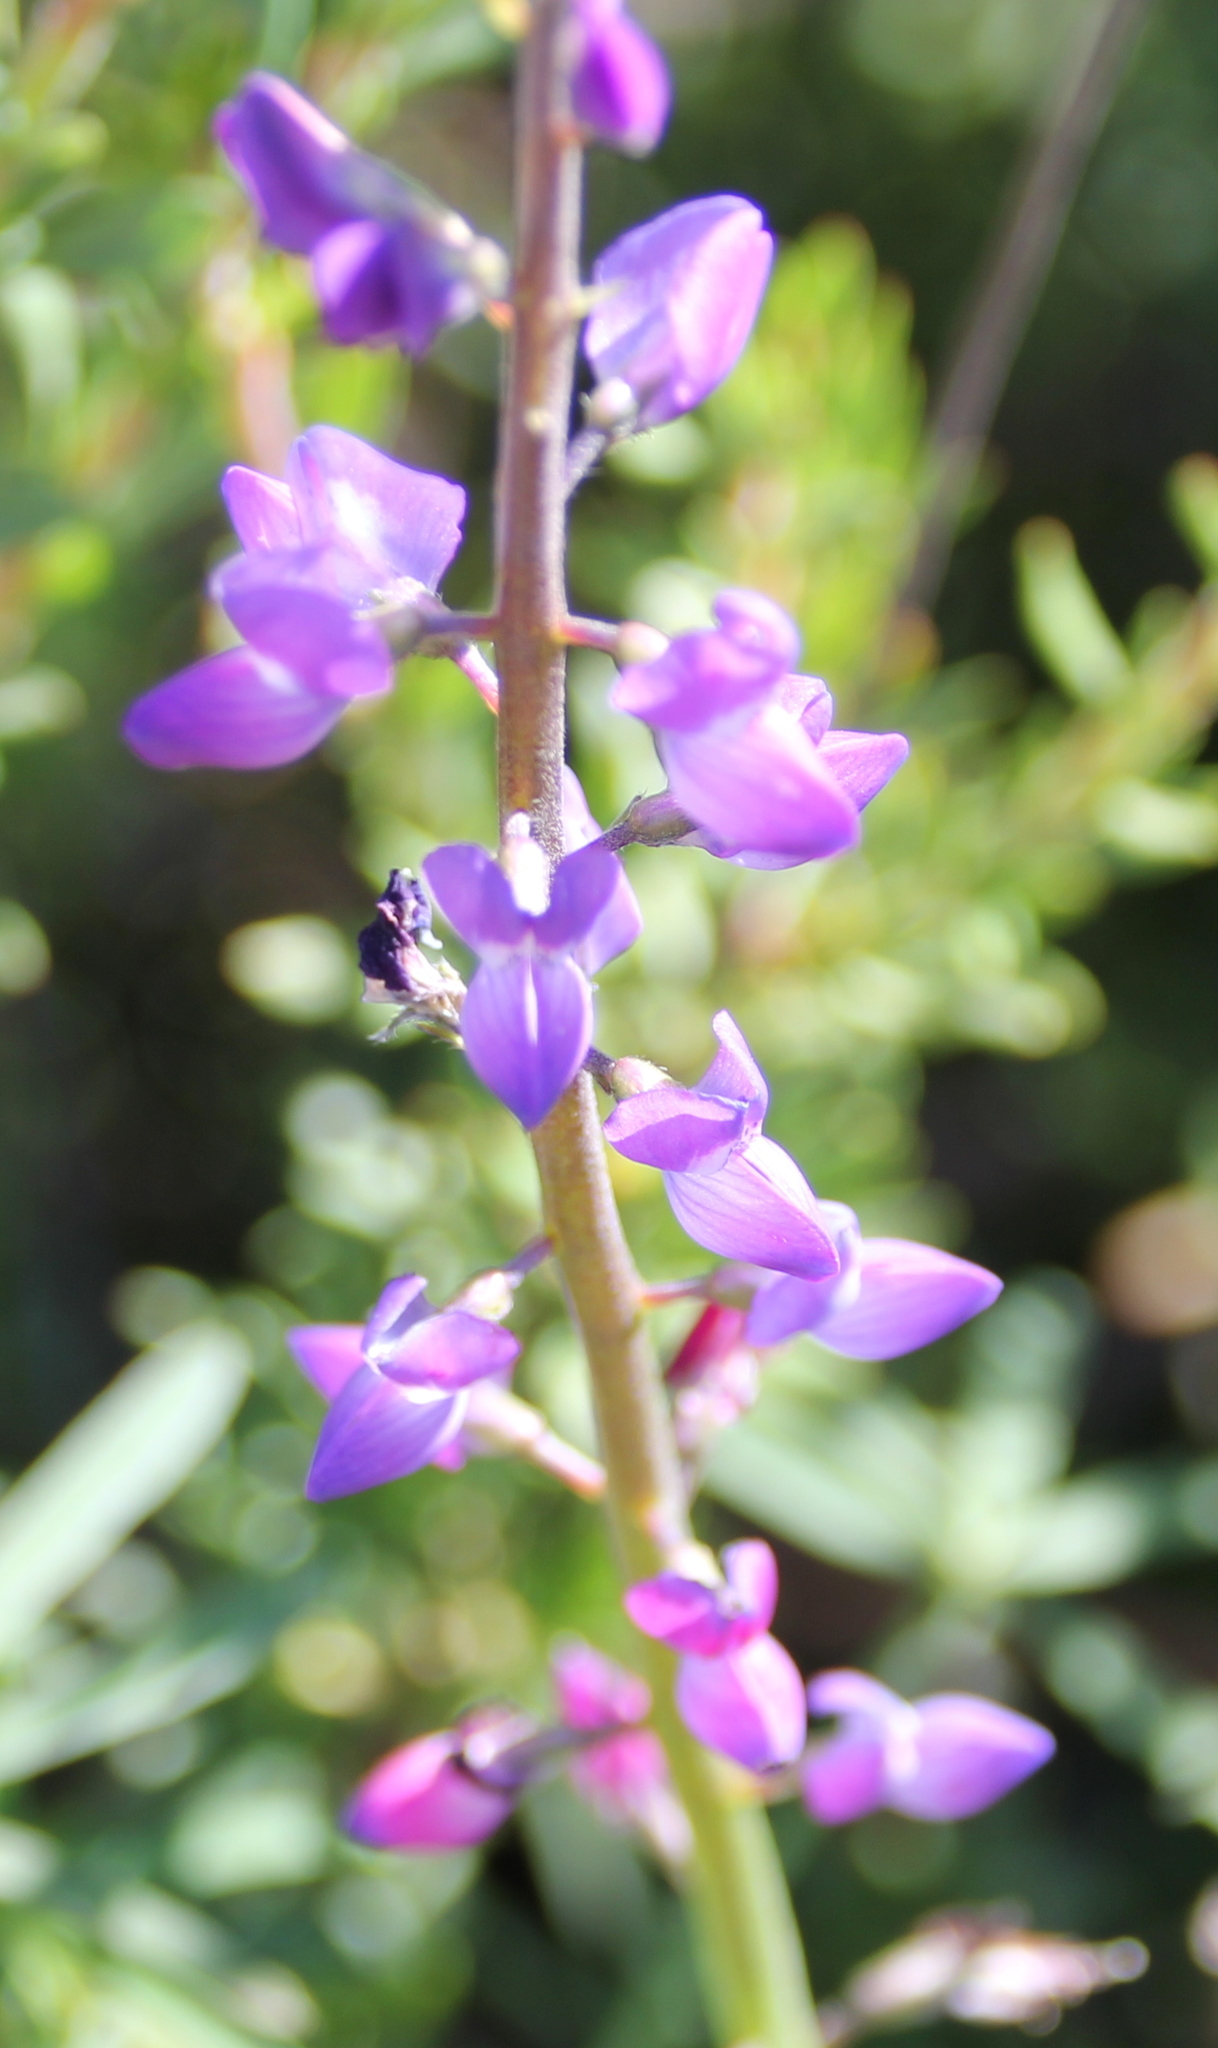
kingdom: Plantae
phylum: Tracheophyta
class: Magnoliopsida
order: Fabales
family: Fabaceae
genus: Lupinus
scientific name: Lupinus truncatus
